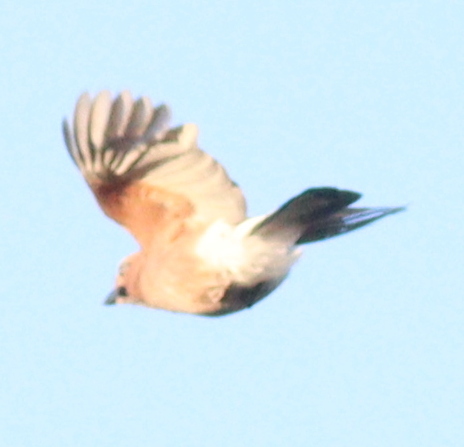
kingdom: Animalia
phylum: Chordata
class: Aves
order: Passeriformes
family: Corvidae
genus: Garrulus
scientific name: Garrulus glandarius
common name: Eurasian jay
